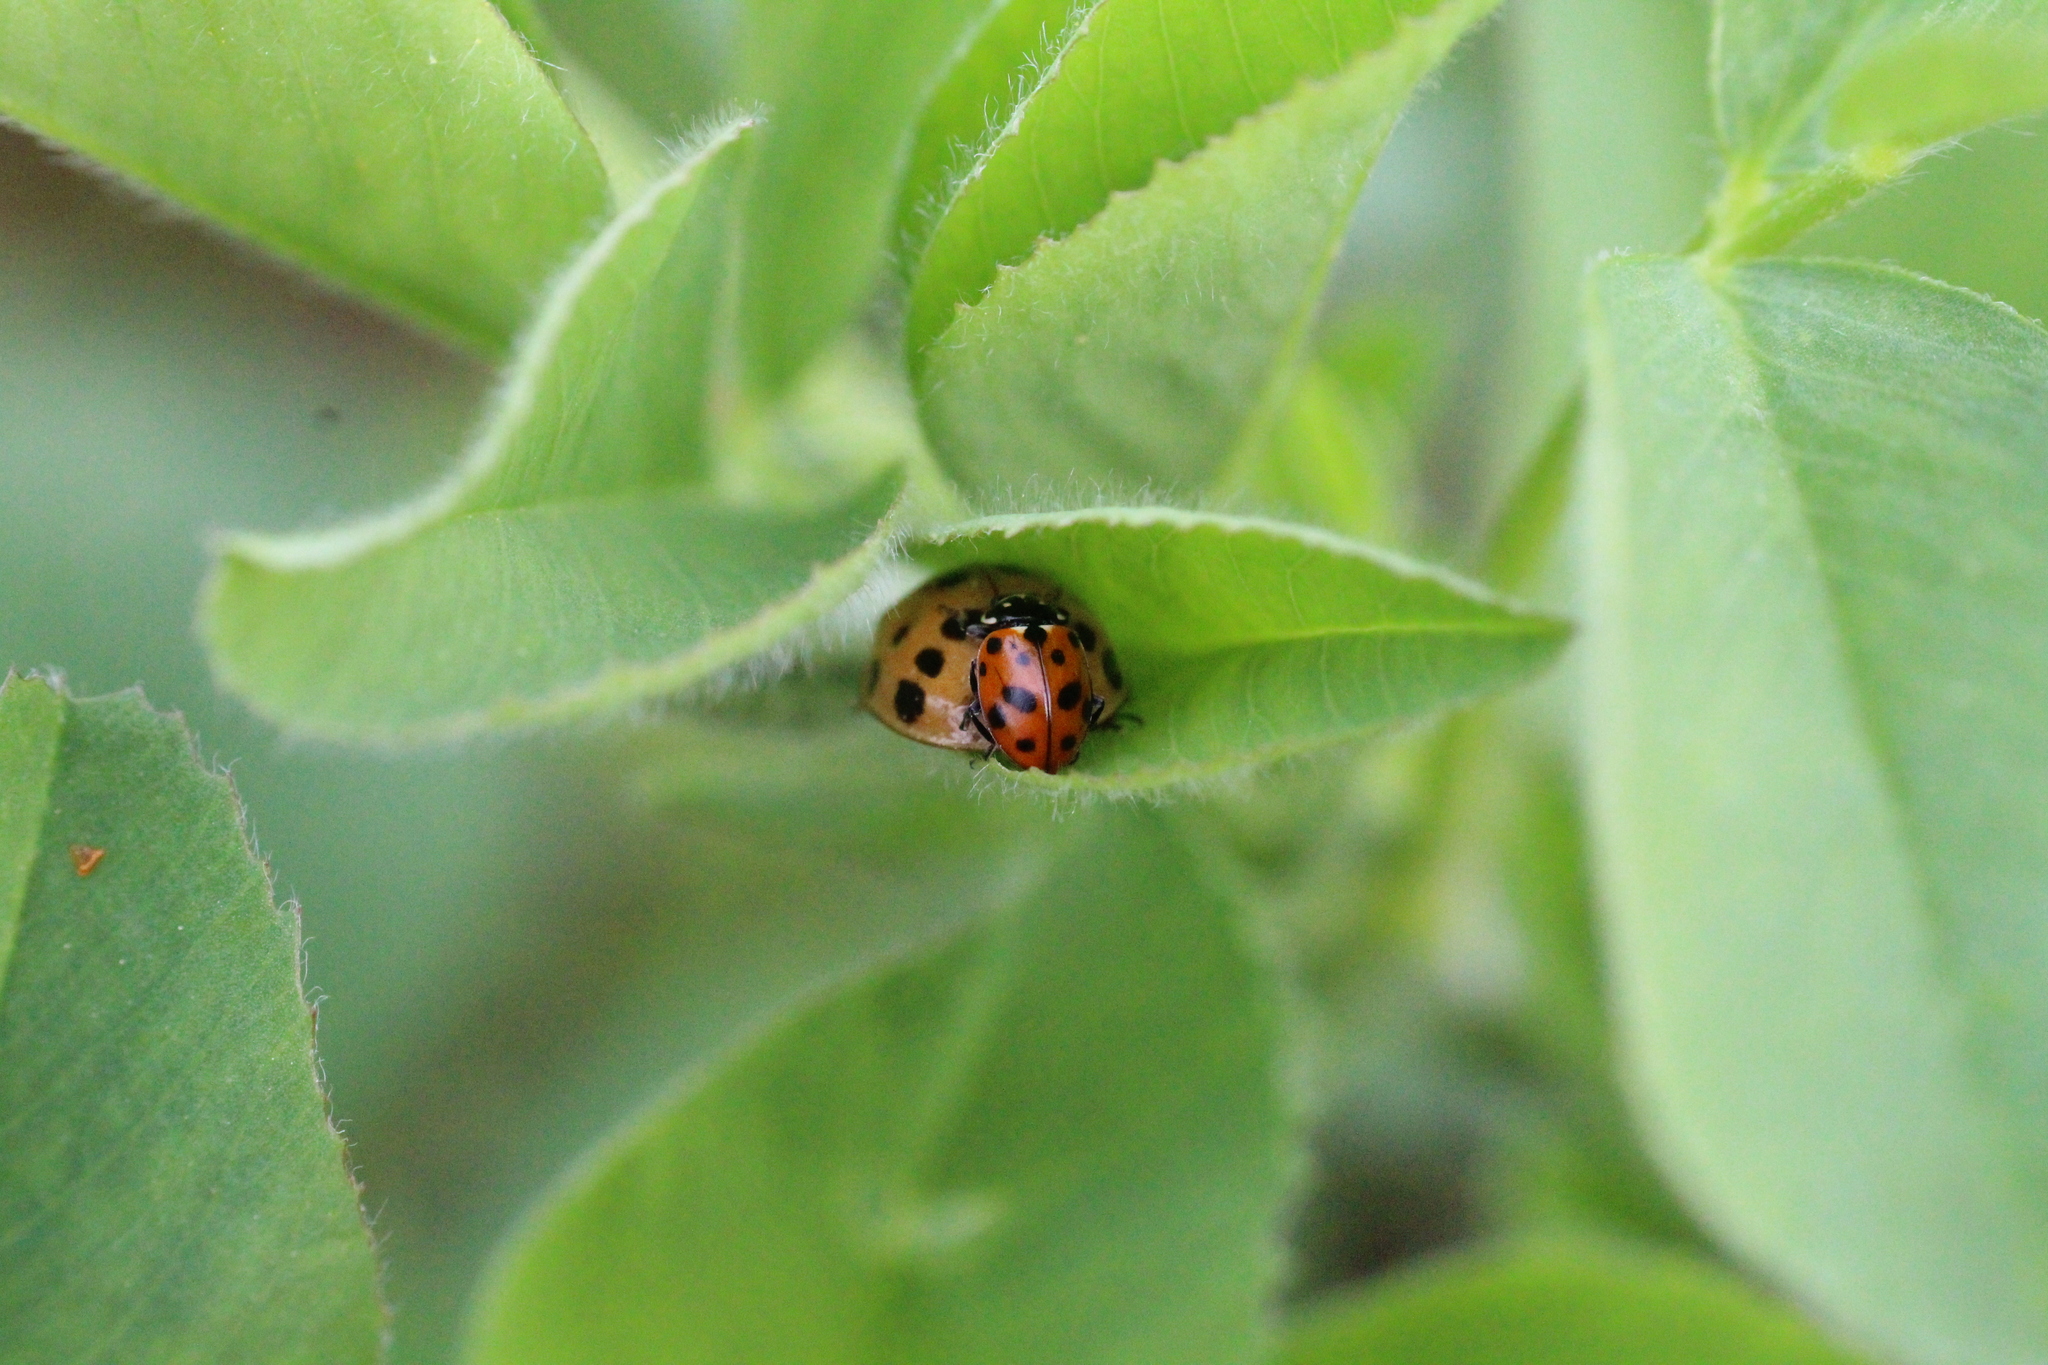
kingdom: Animalia
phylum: Arthropoda
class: Insecta
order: Coleoptera
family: Coccinellidae
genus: Harmonia
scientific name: Harmonia axyridis
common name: Harlequin ladybird
